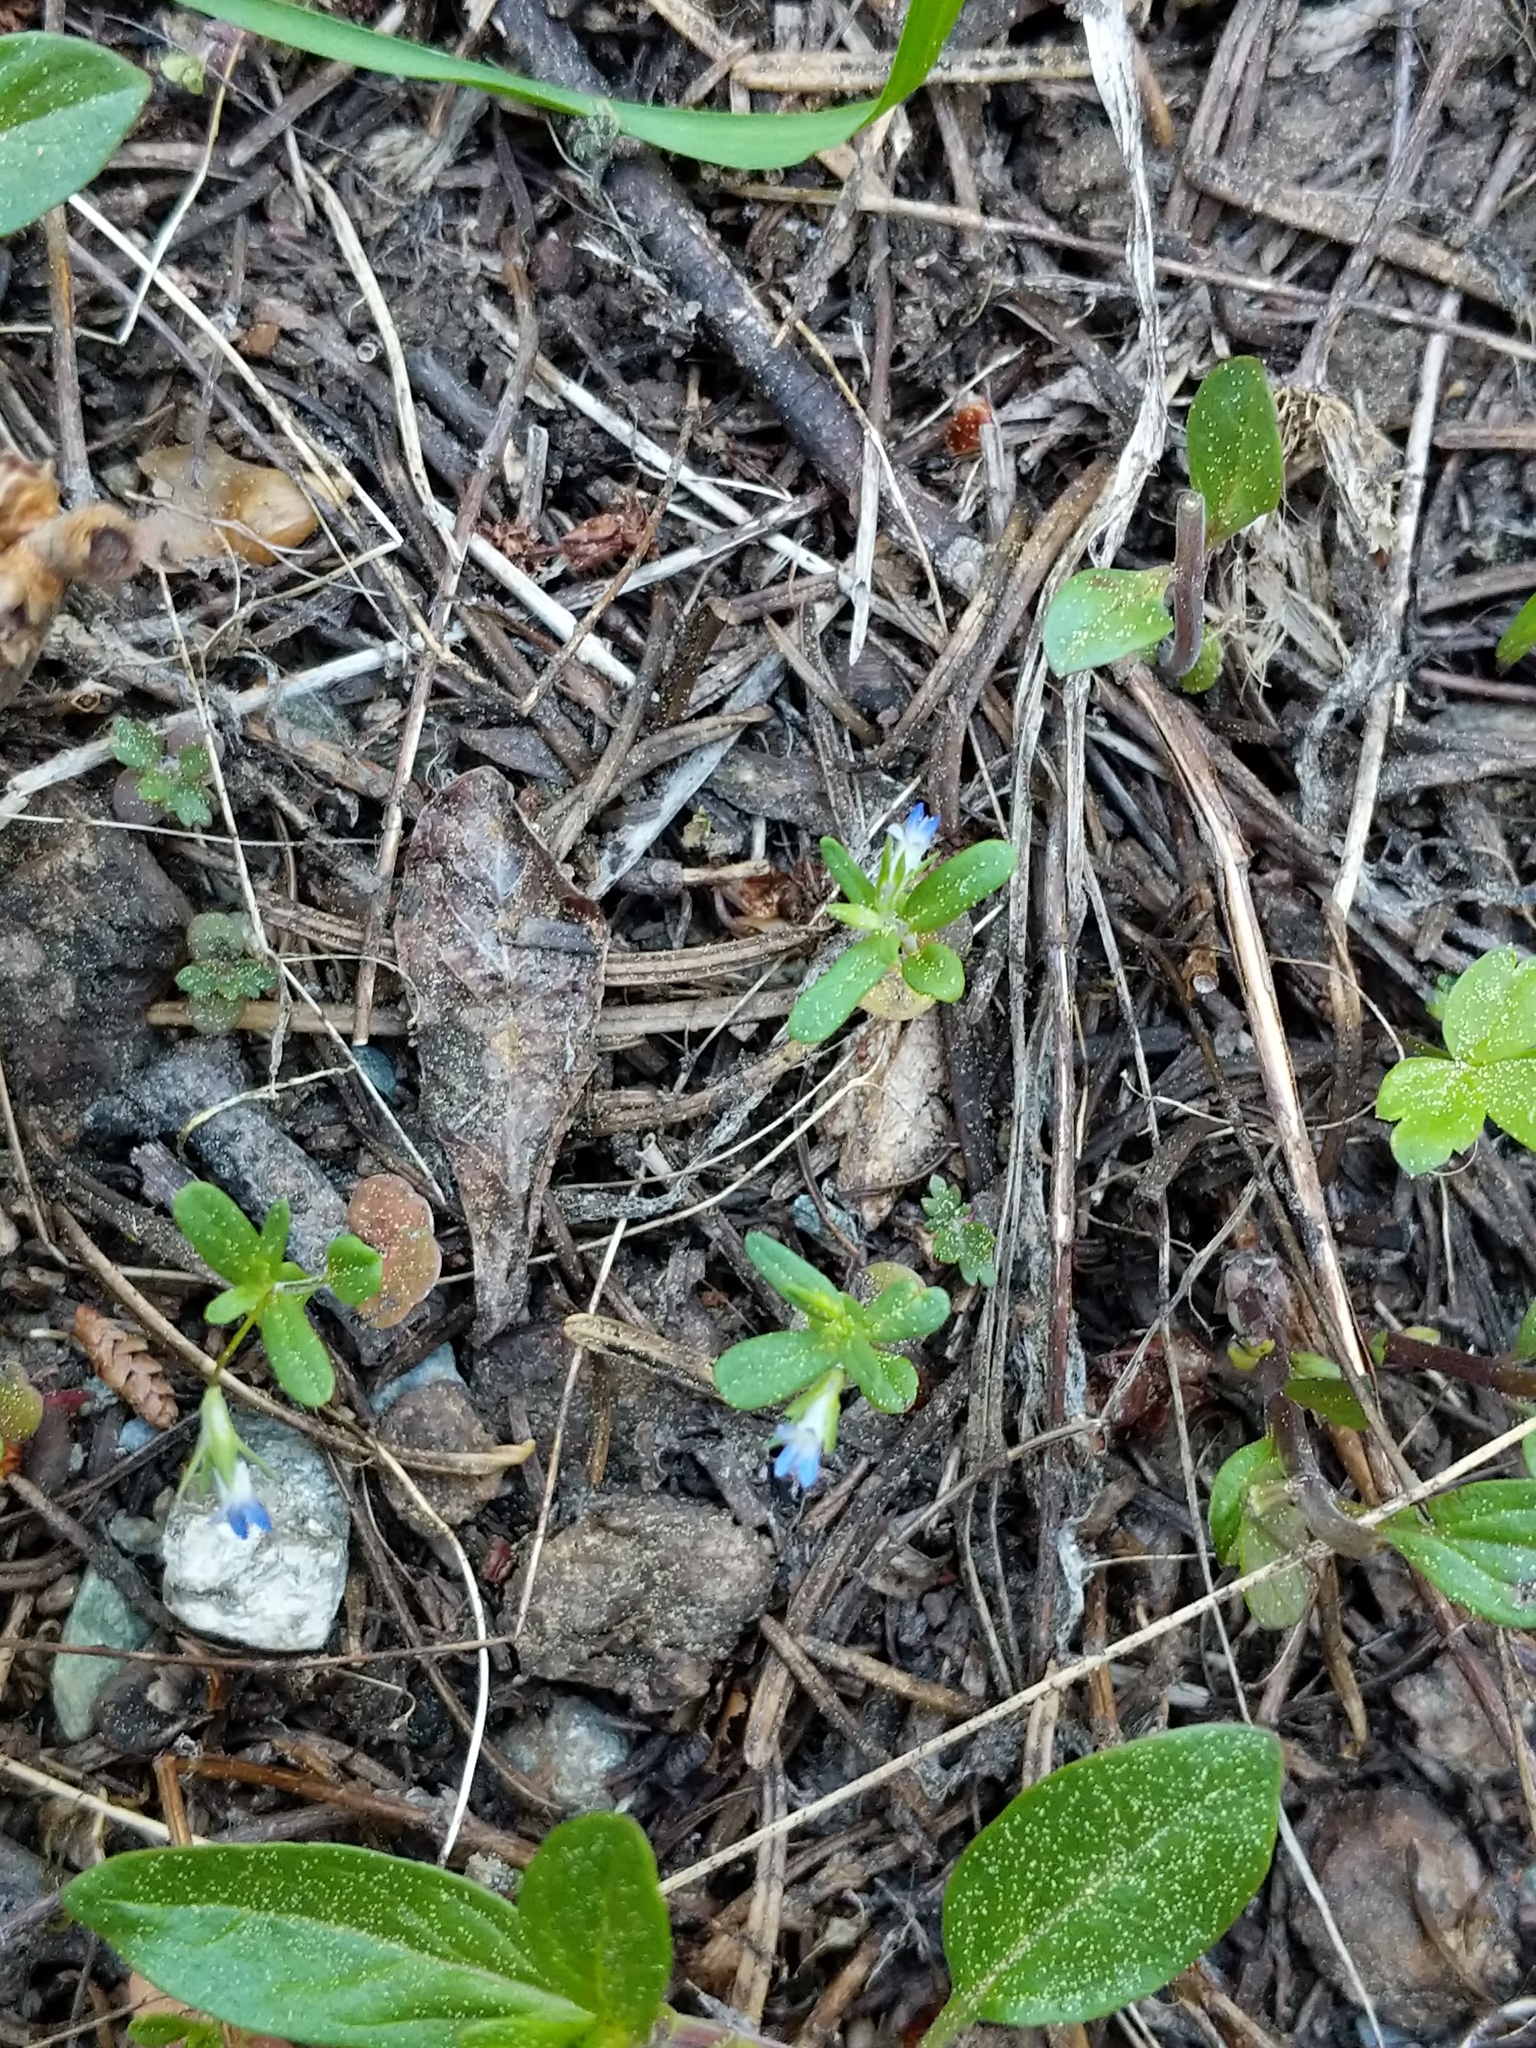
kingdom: Plantae
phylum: Tracheophyta
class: Magnoliopsida
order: Lamiales
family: Plantaginaceae
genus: Collinsia
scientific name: Collinsia parviflora
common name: Blue-lips
